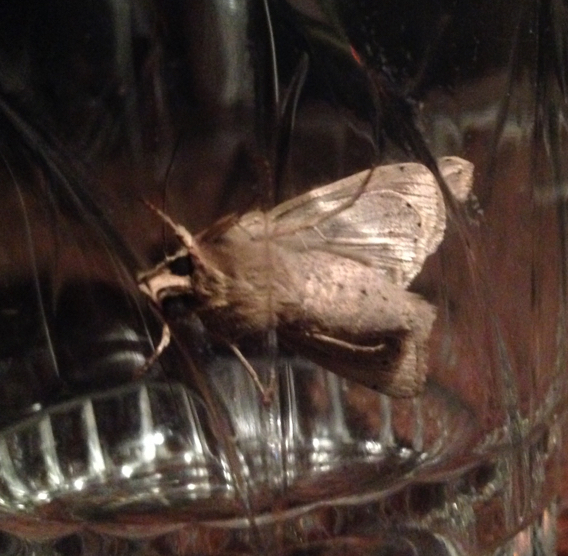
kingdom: Animalia
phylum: Arthropoda
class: Insecta
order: Lepidoptera
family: Noctuidae
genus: Mythimna
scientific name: Mythimna unipuncta
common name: White-speck
